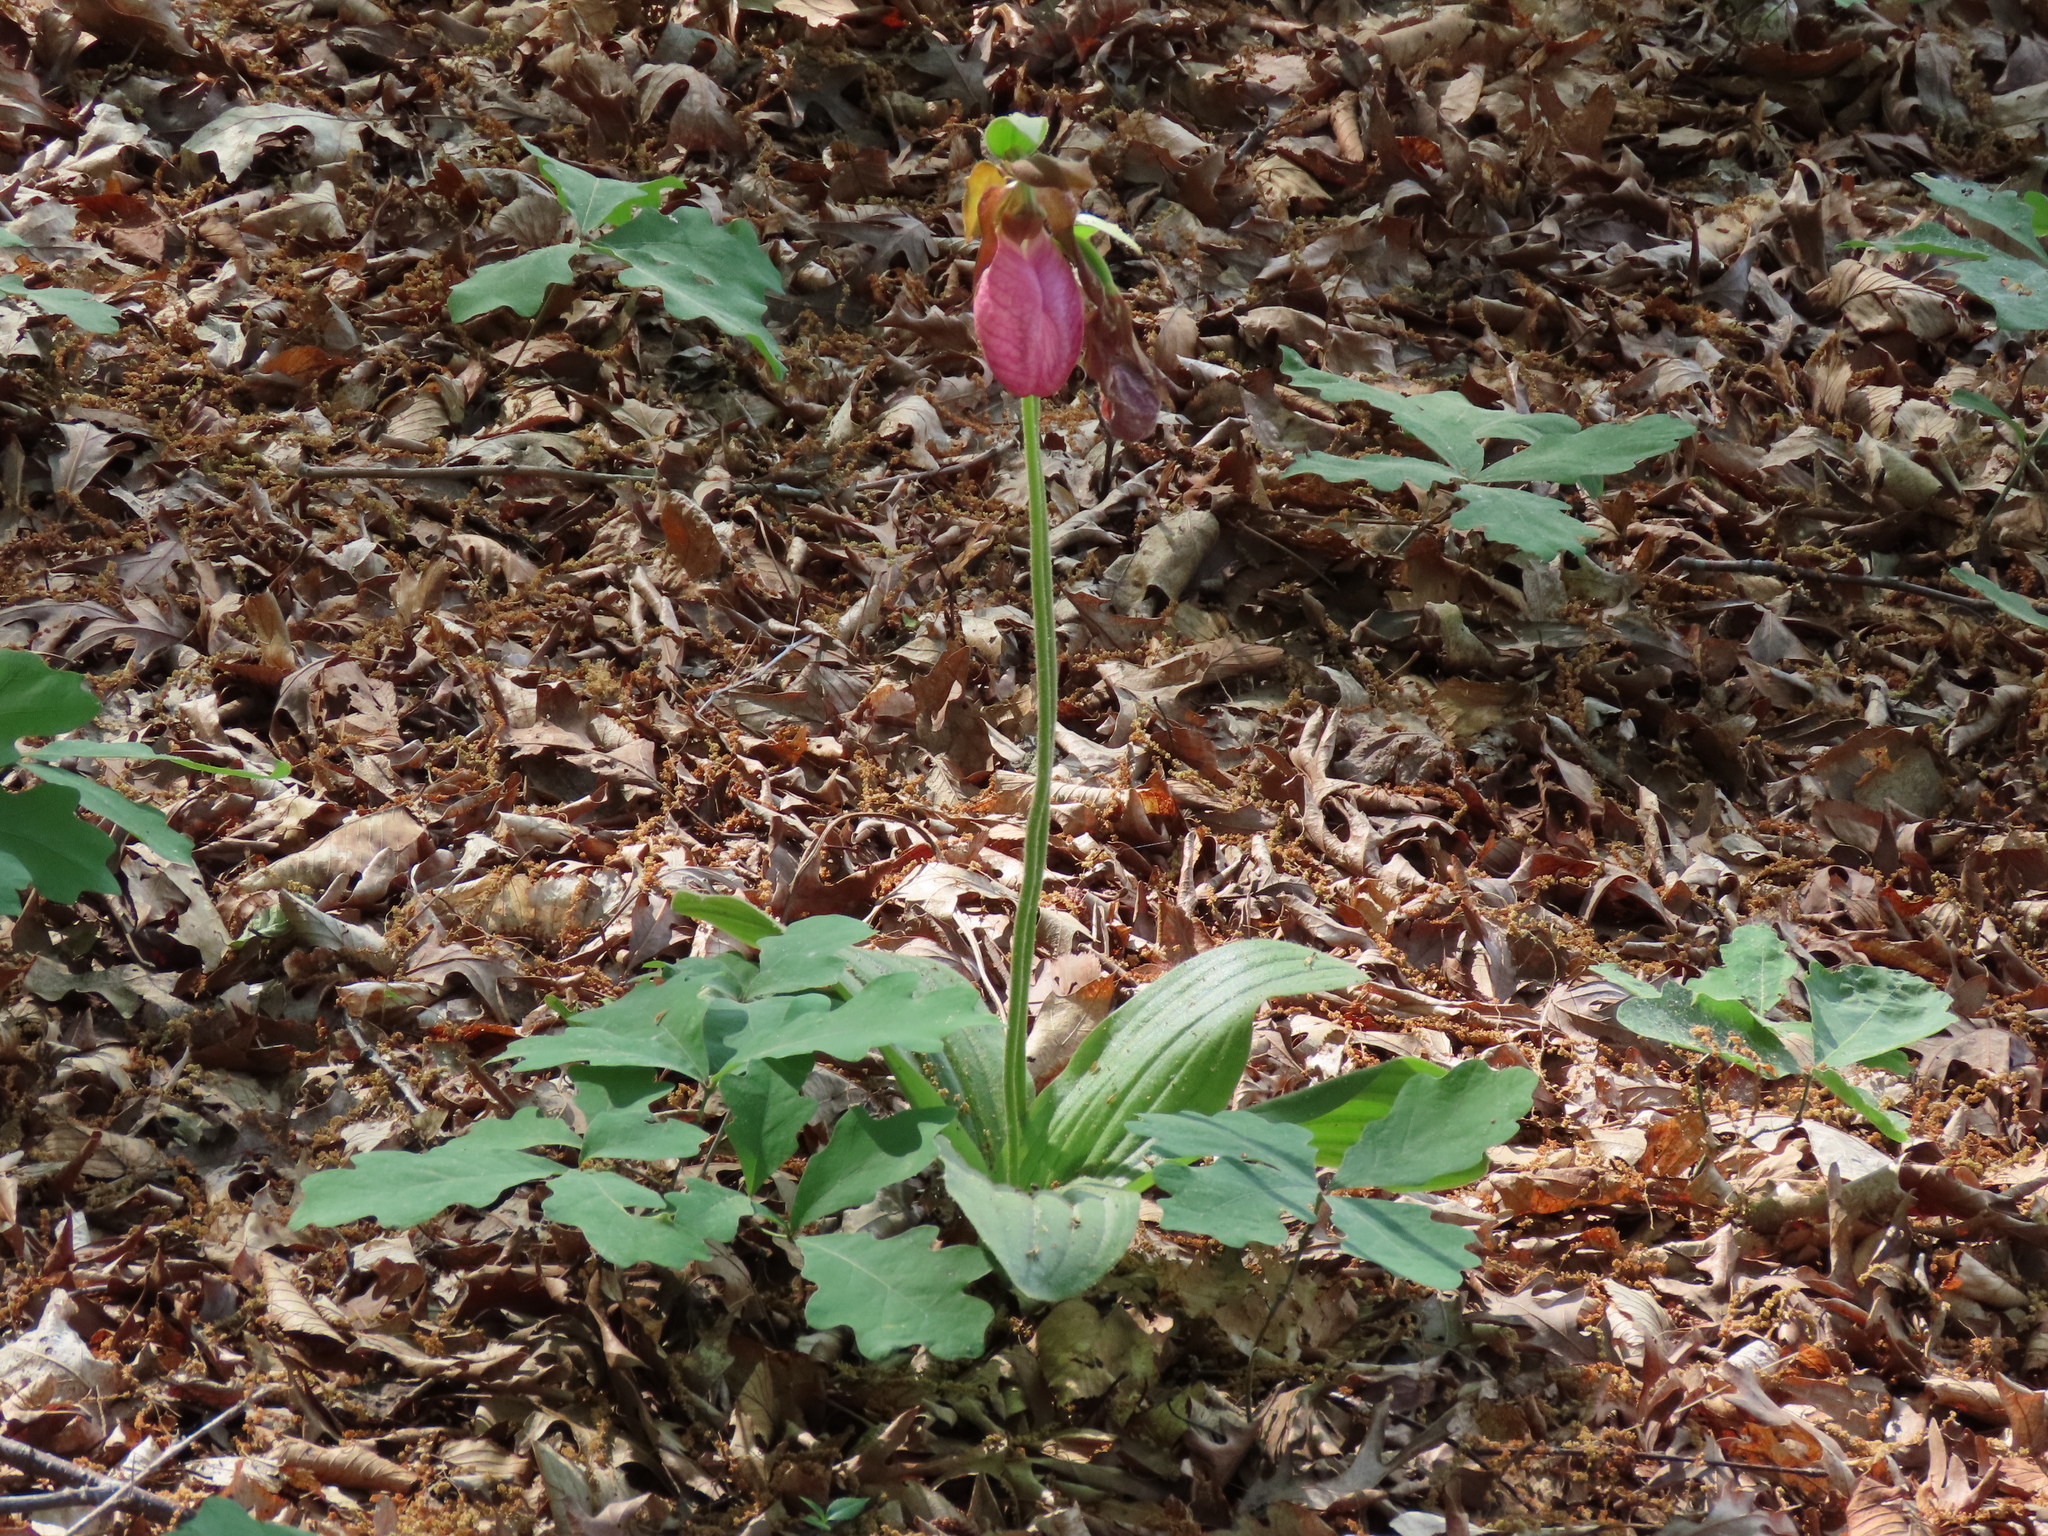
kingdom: Plantae
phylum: Tracheophyta
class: Liliopsida
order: Asparagales
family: Orchidaceae
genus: Cypripedium
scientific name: Cypripedium acaule
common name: Pink lady's-slipper
